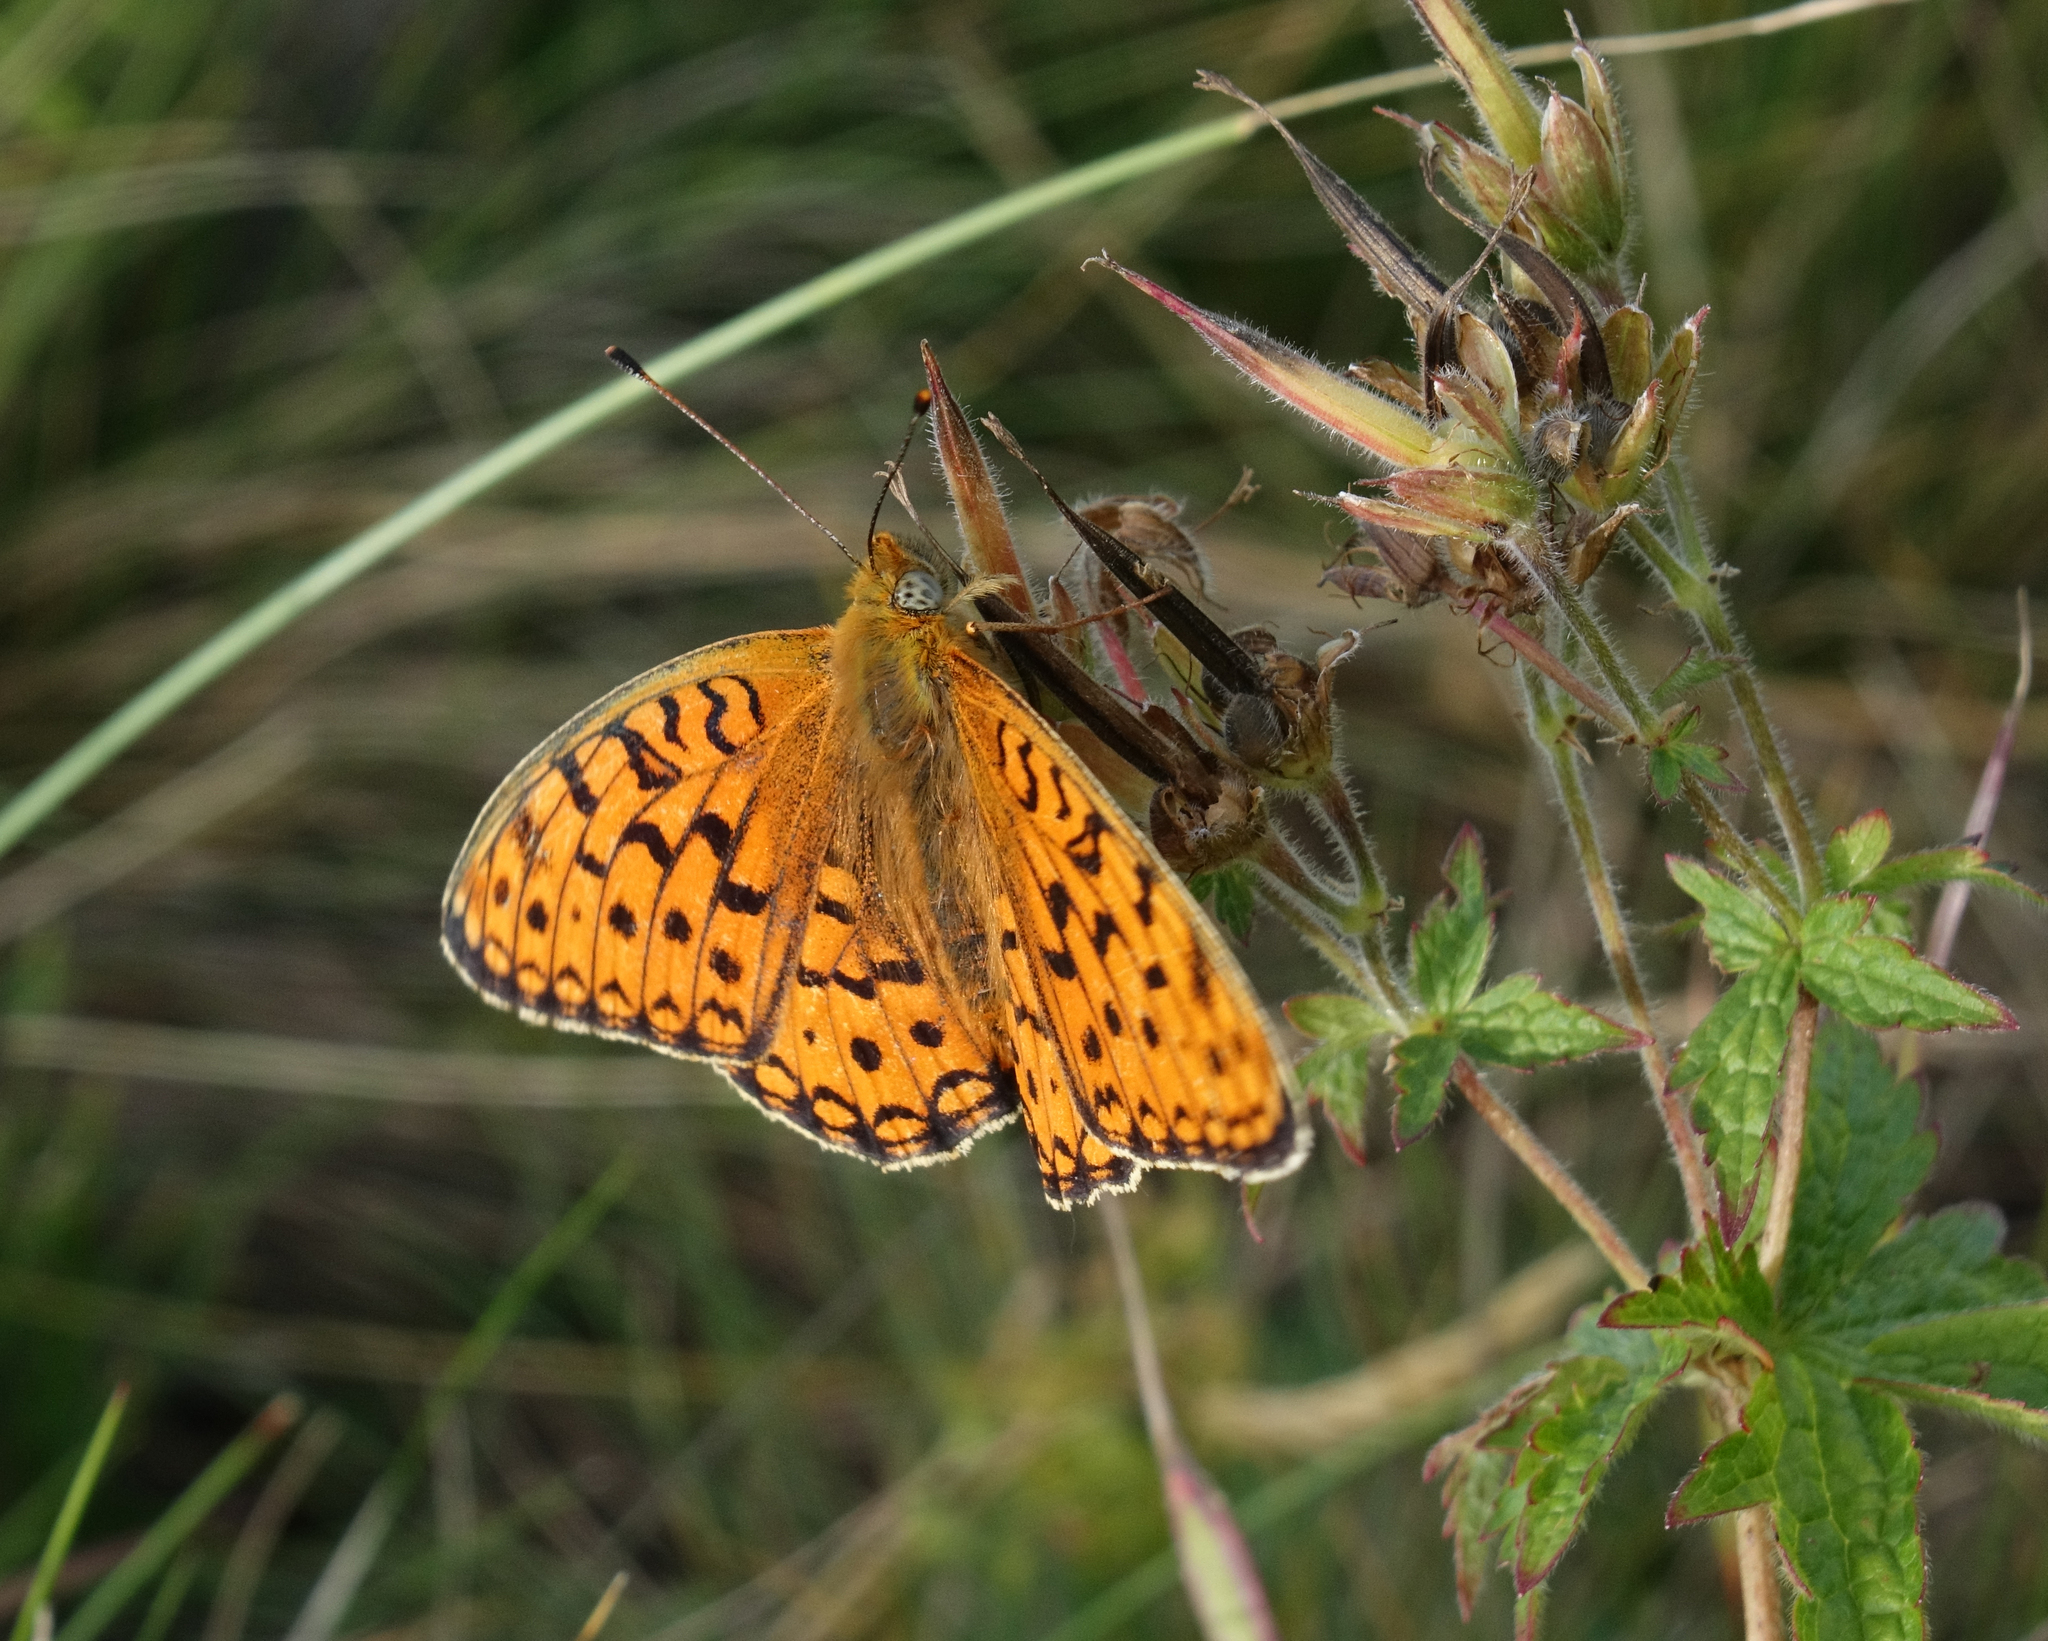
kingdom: Animalia
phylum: Arthropoda
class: Insecta
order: Lepidoptera
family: Nymphalidae
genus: Fabriciana
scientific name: Fabriciana niobe
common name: Niobe fritillary
